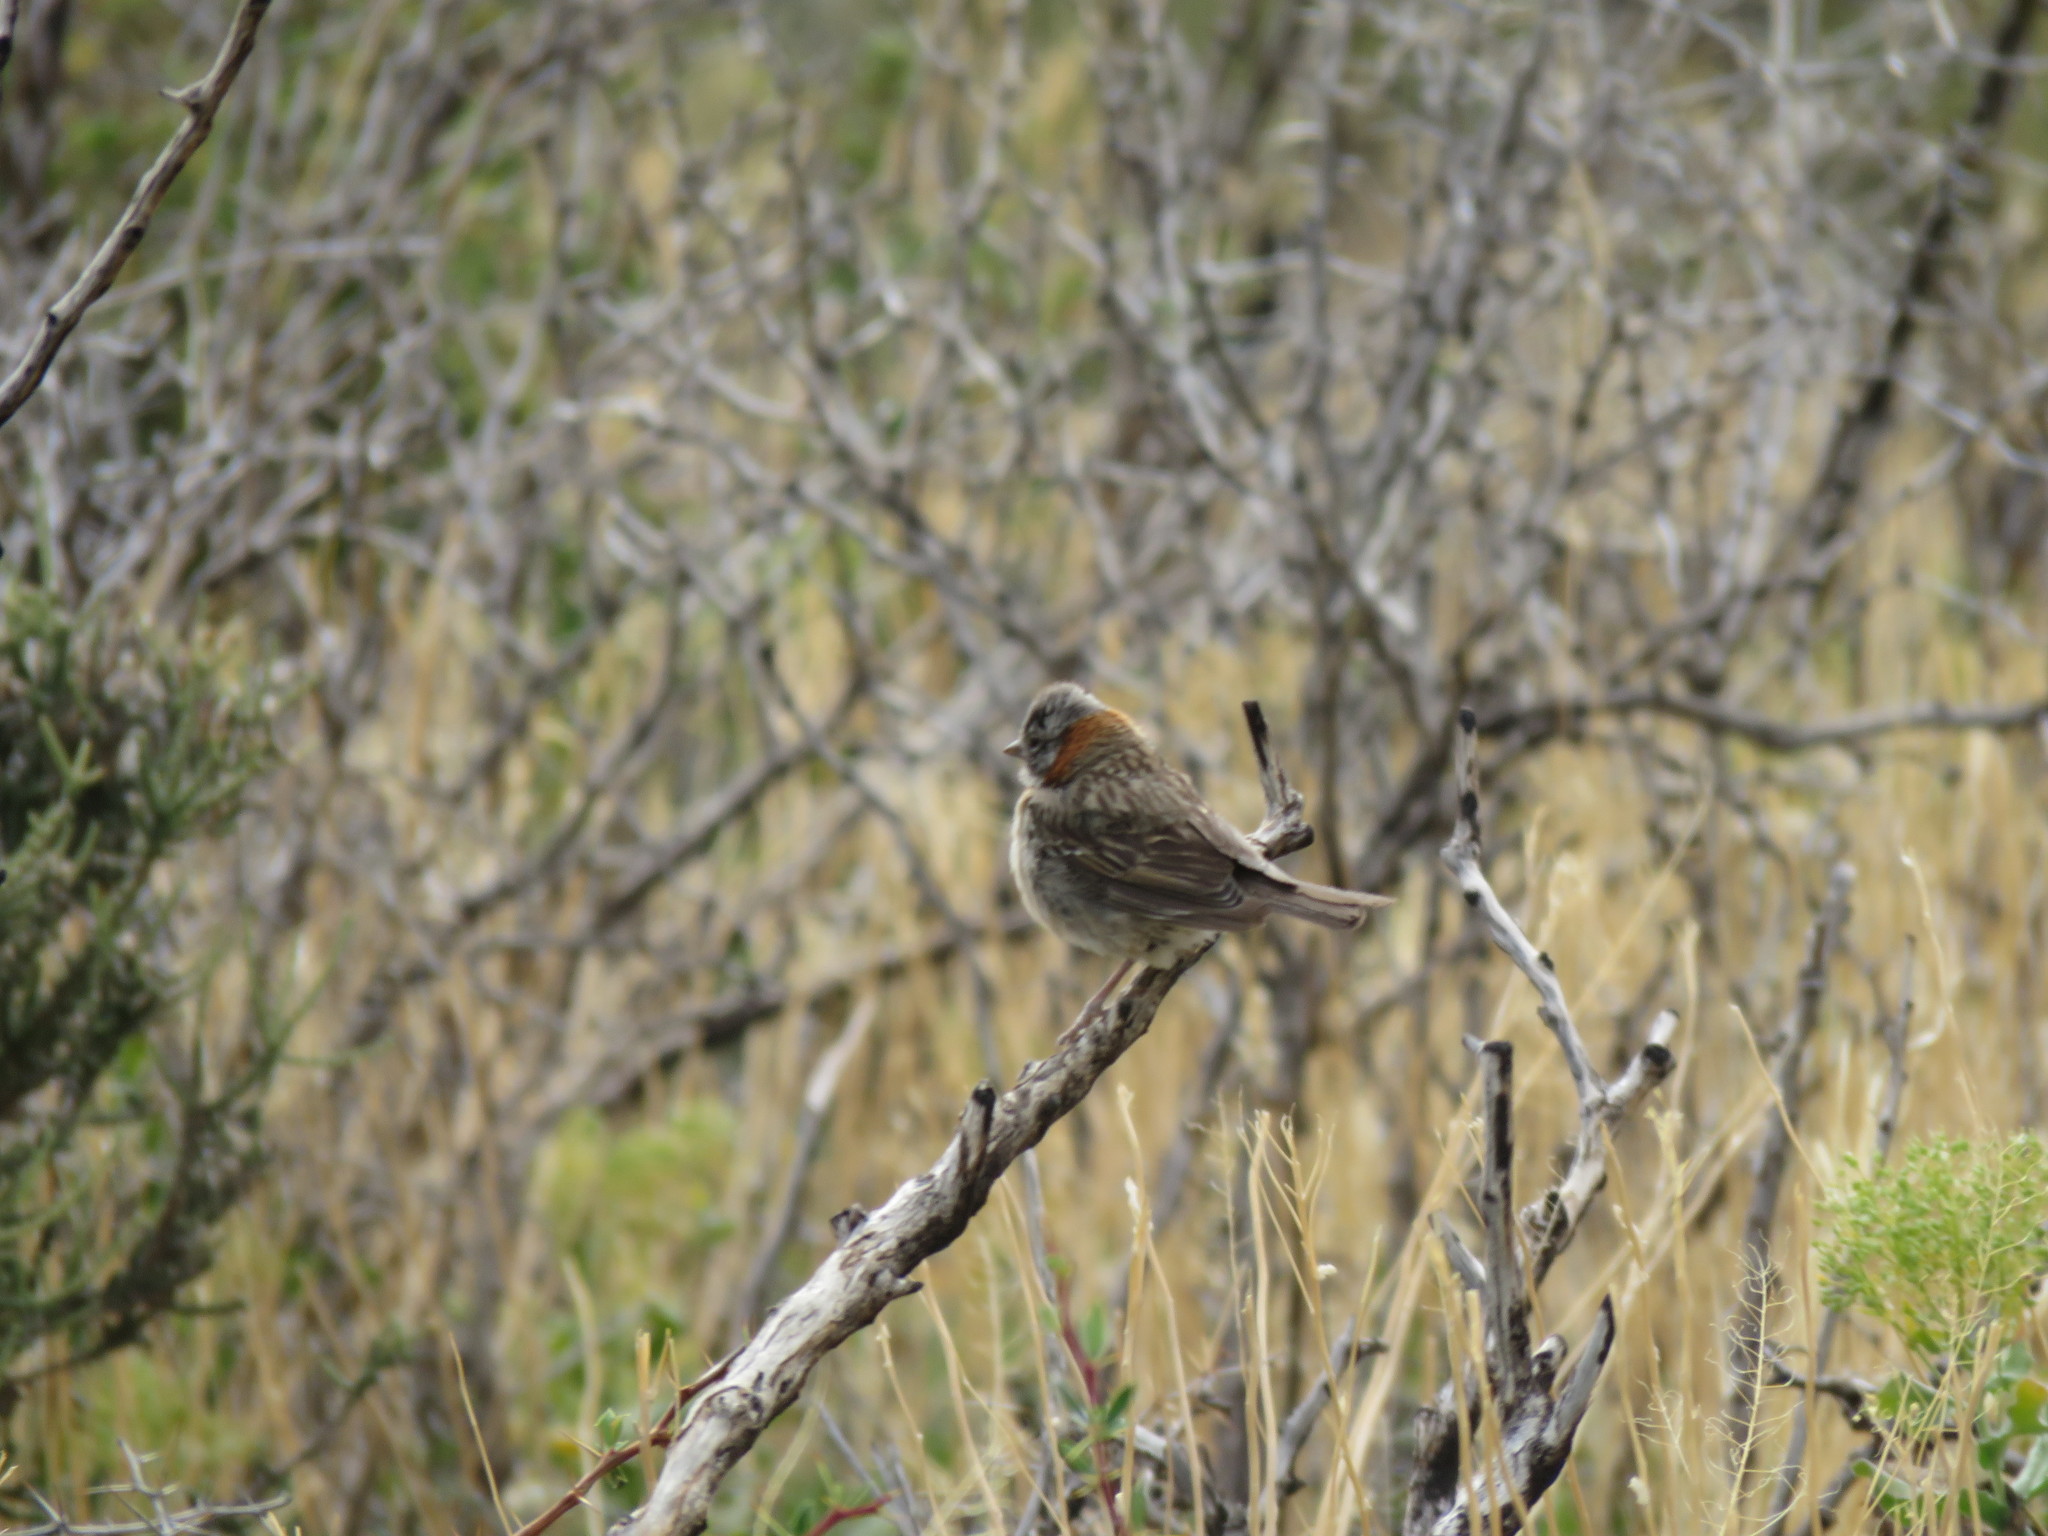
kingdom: Animalia
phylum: Chordata
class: Aves
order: Passeriformes
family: Passerellidae
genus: Zonotrichia
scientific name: Zonotrichia capensis
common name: Rufous-collared sparrow
